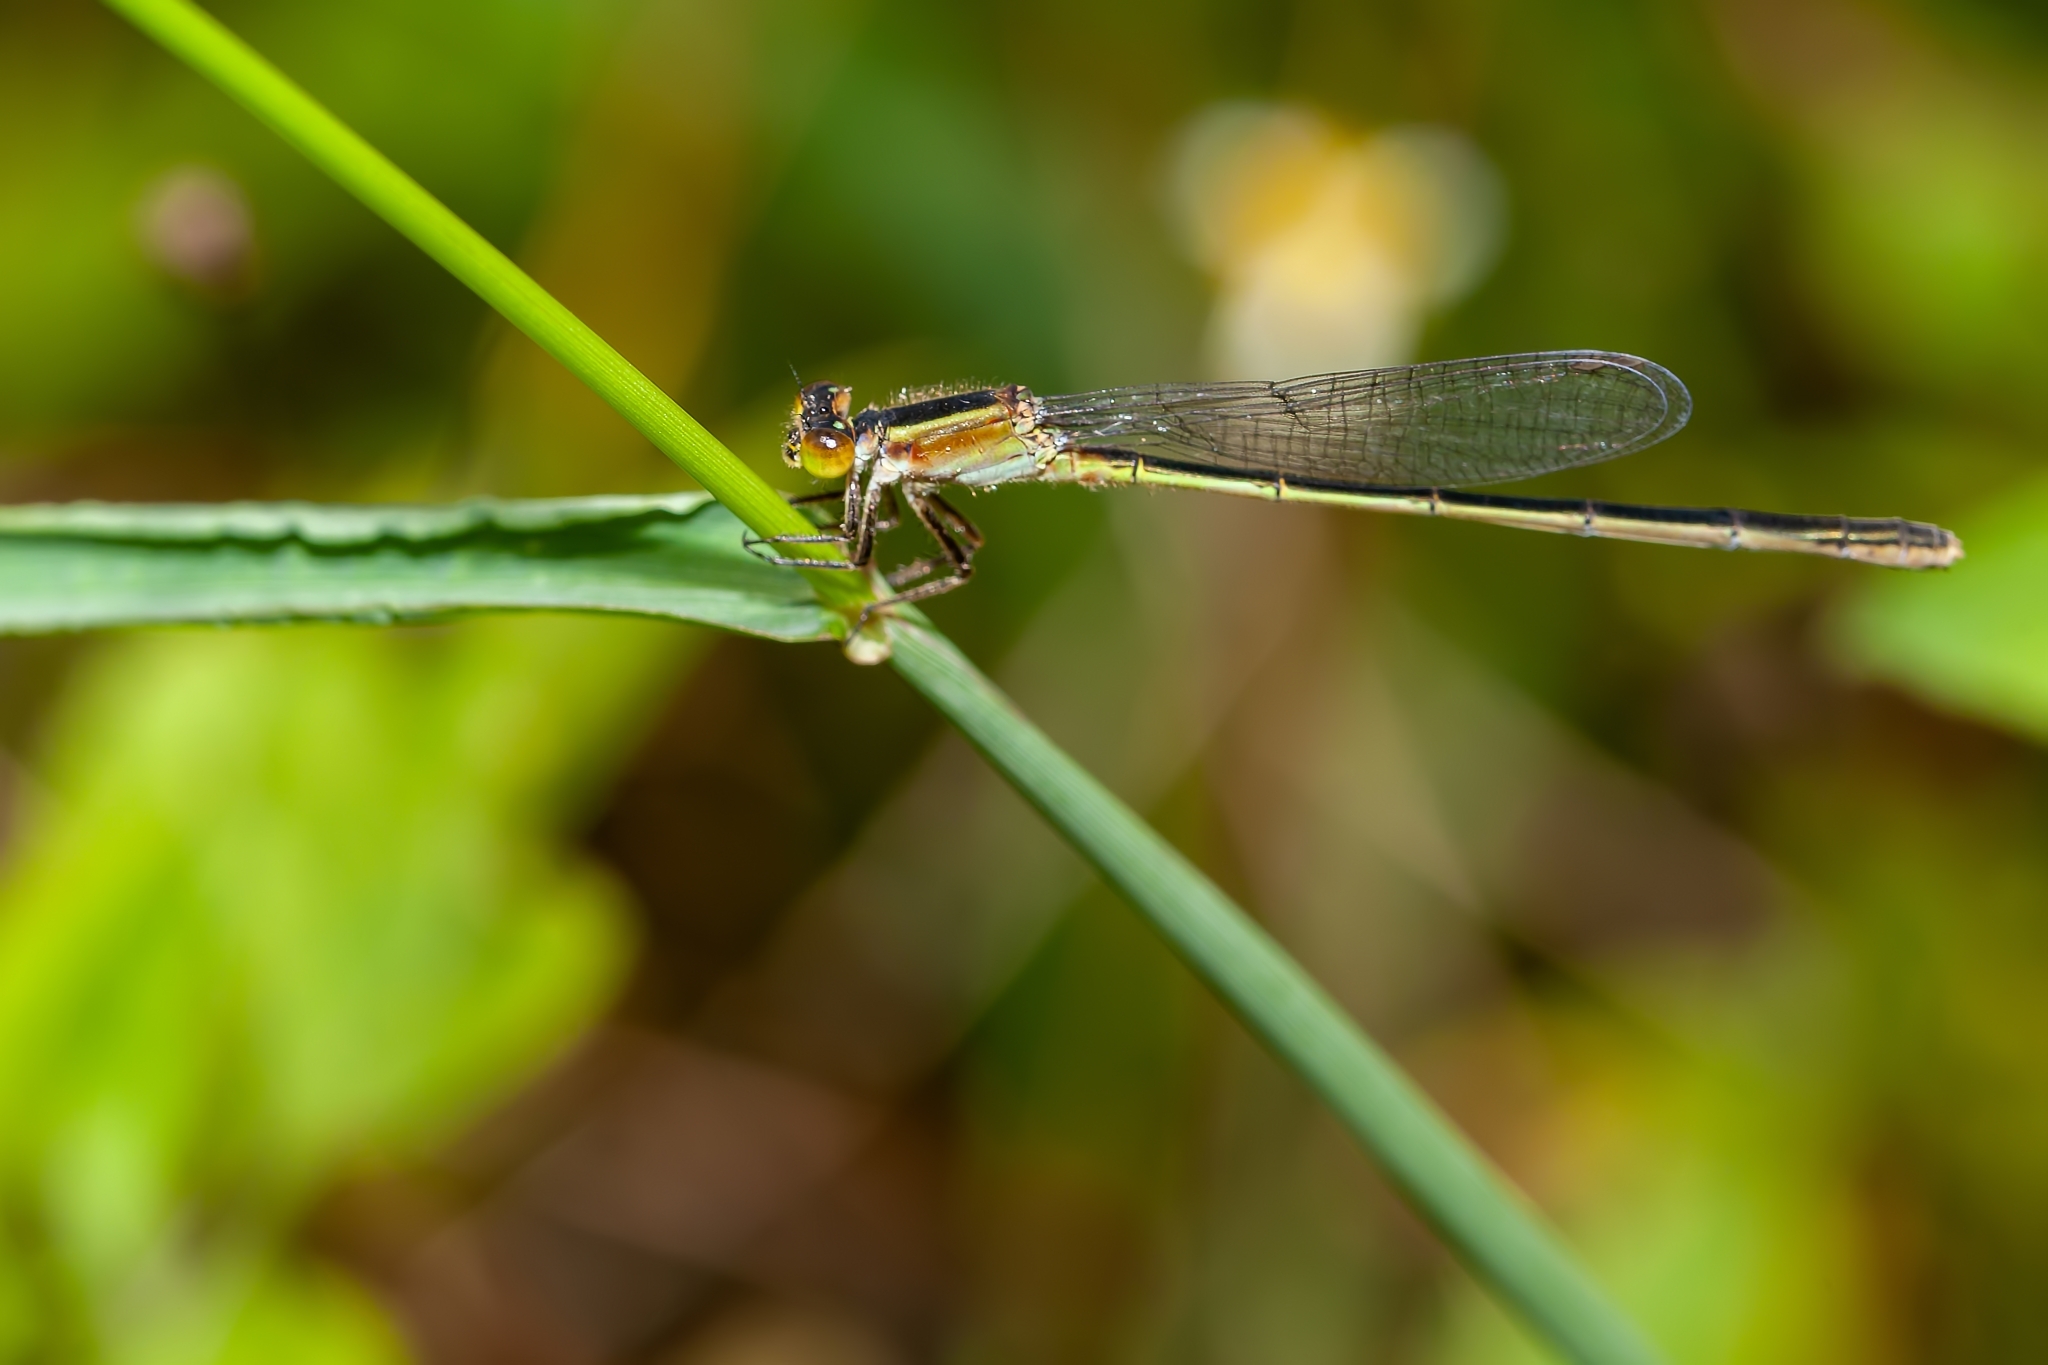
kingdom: Animalia
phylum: Arthropoda
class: Insecta
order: Odonata
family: Coenagrionidae
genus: Ischnura
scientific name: Ischnura ramburii
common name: Rambur's forktail
